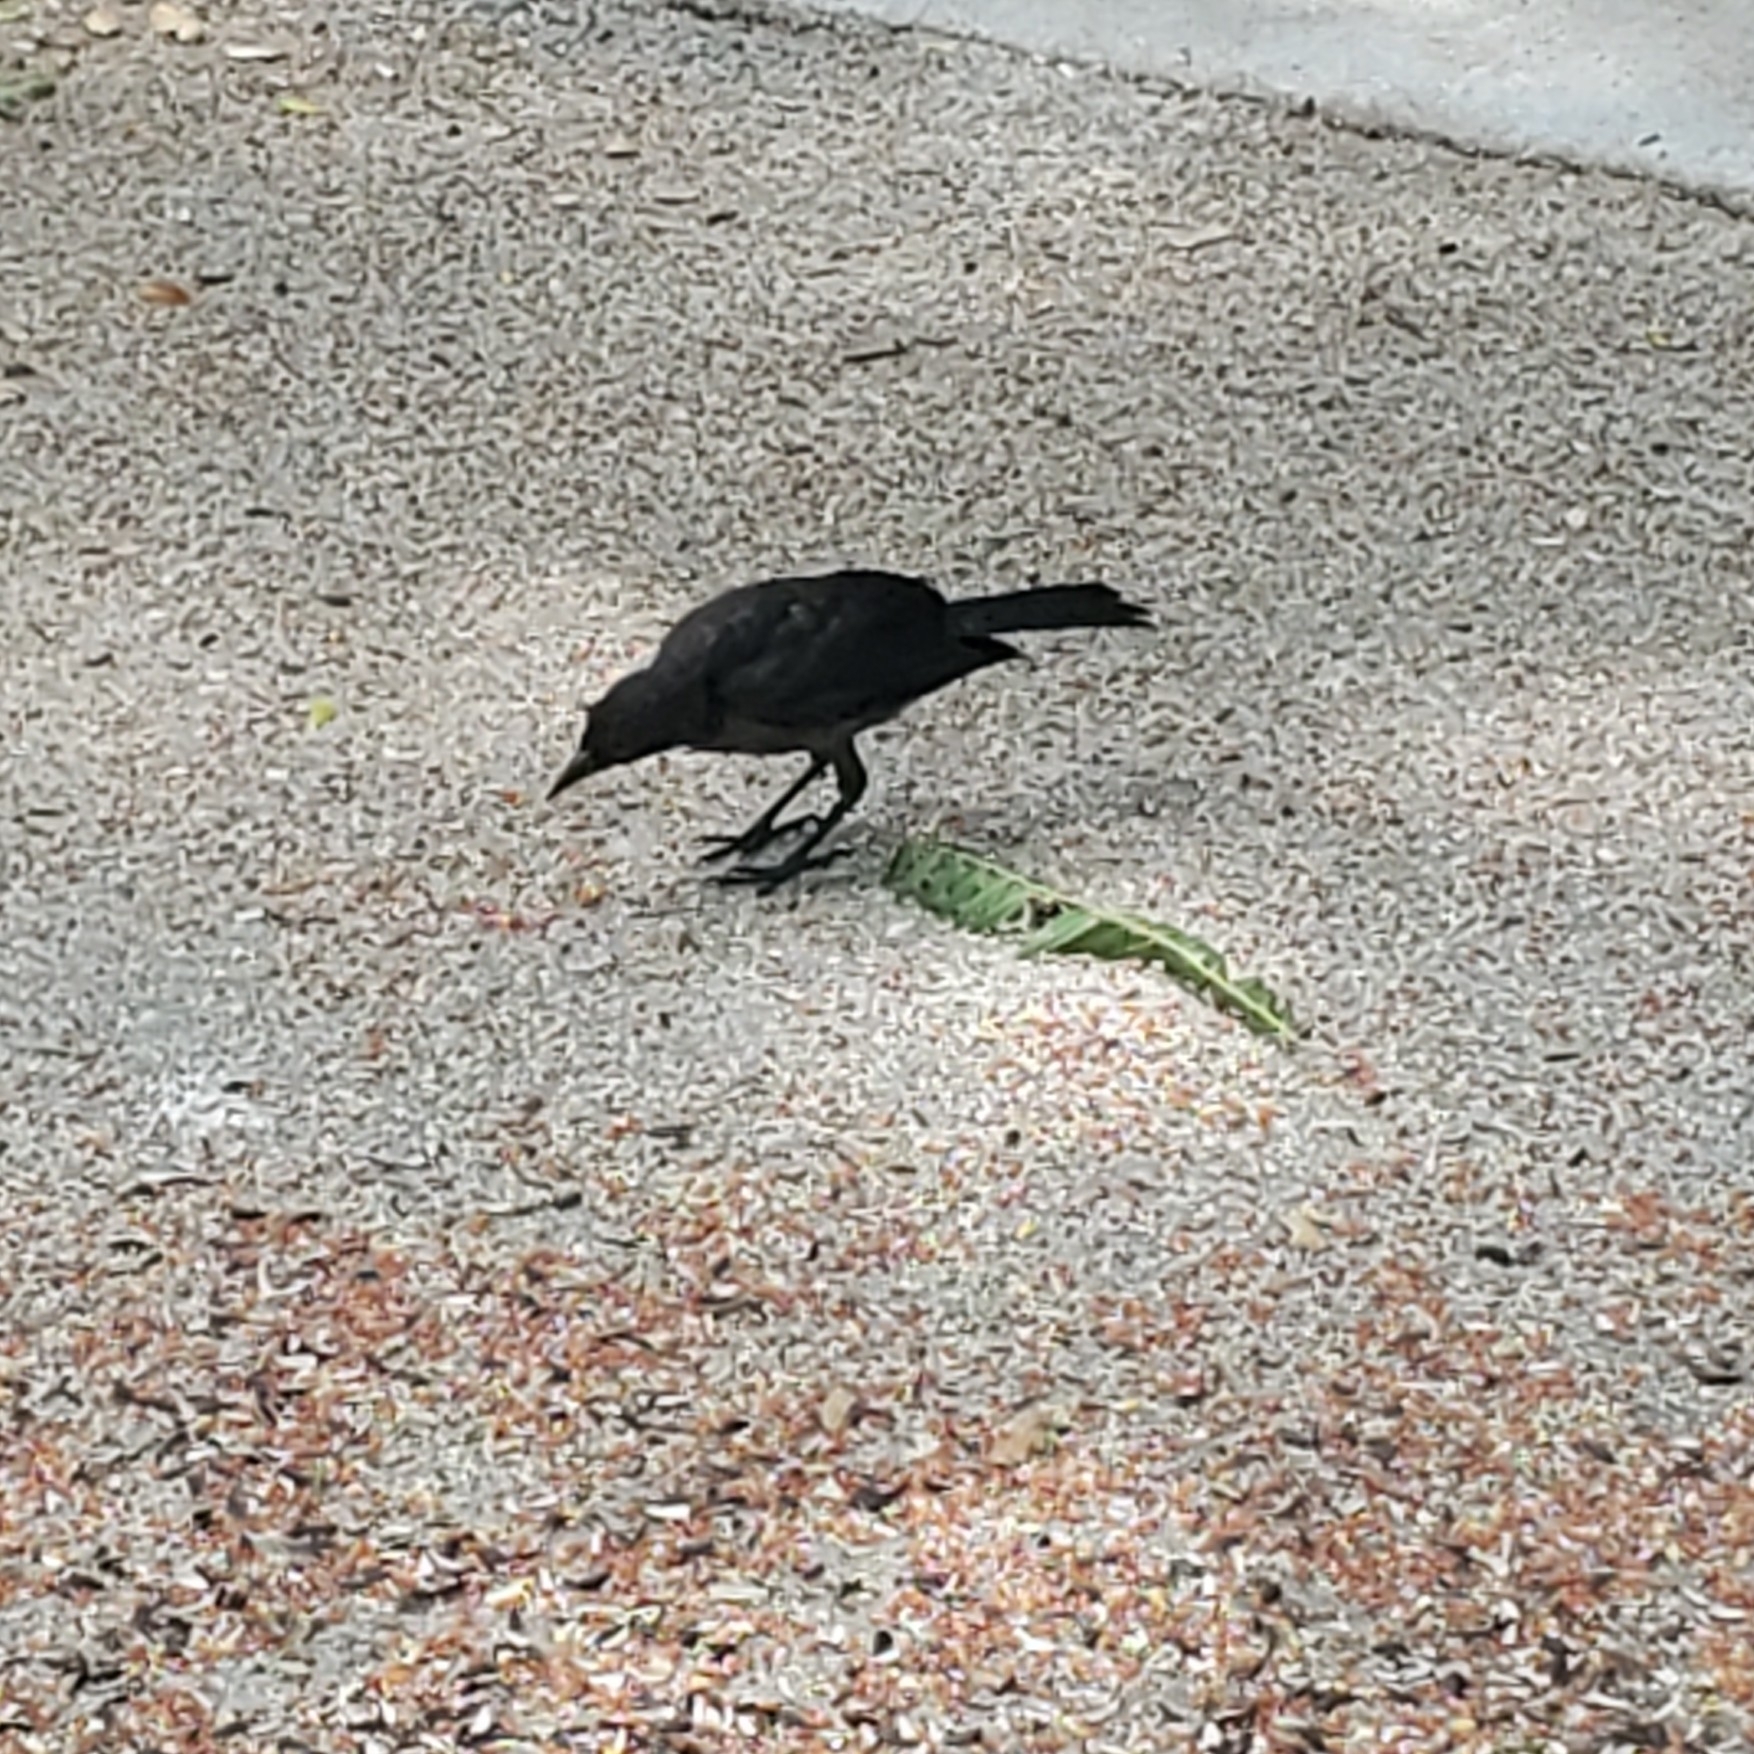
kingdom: Animalia
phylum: Chordata
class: Aves
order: Passeriformes
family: Icteridae
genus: Quiscalus
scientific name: Quiscalus quiscula
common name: Common grackle
